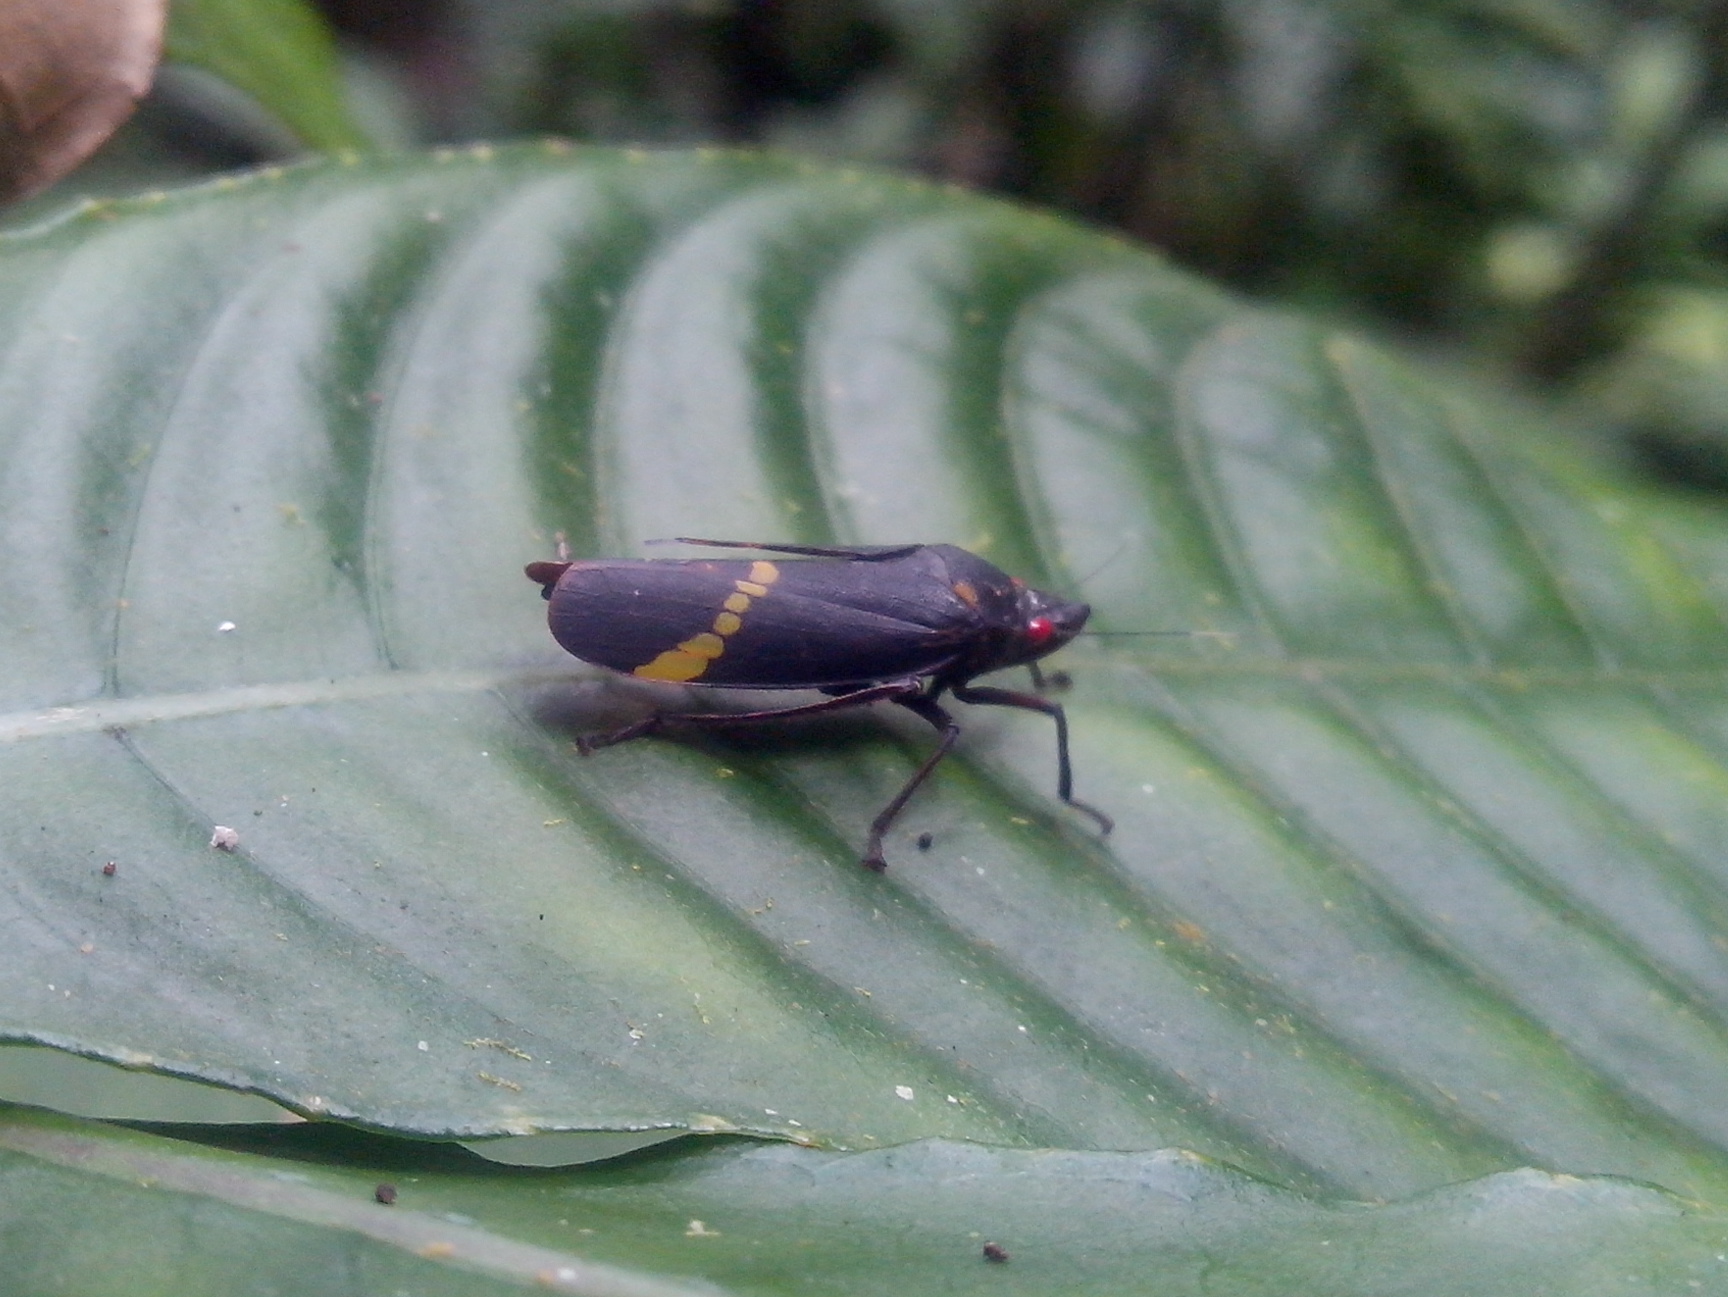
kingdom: Animalia
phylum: Arthropoda
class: Insecta
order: Hemiptera
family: Cicadellidae
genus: Cicciana
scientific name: Cicciana obliqua
